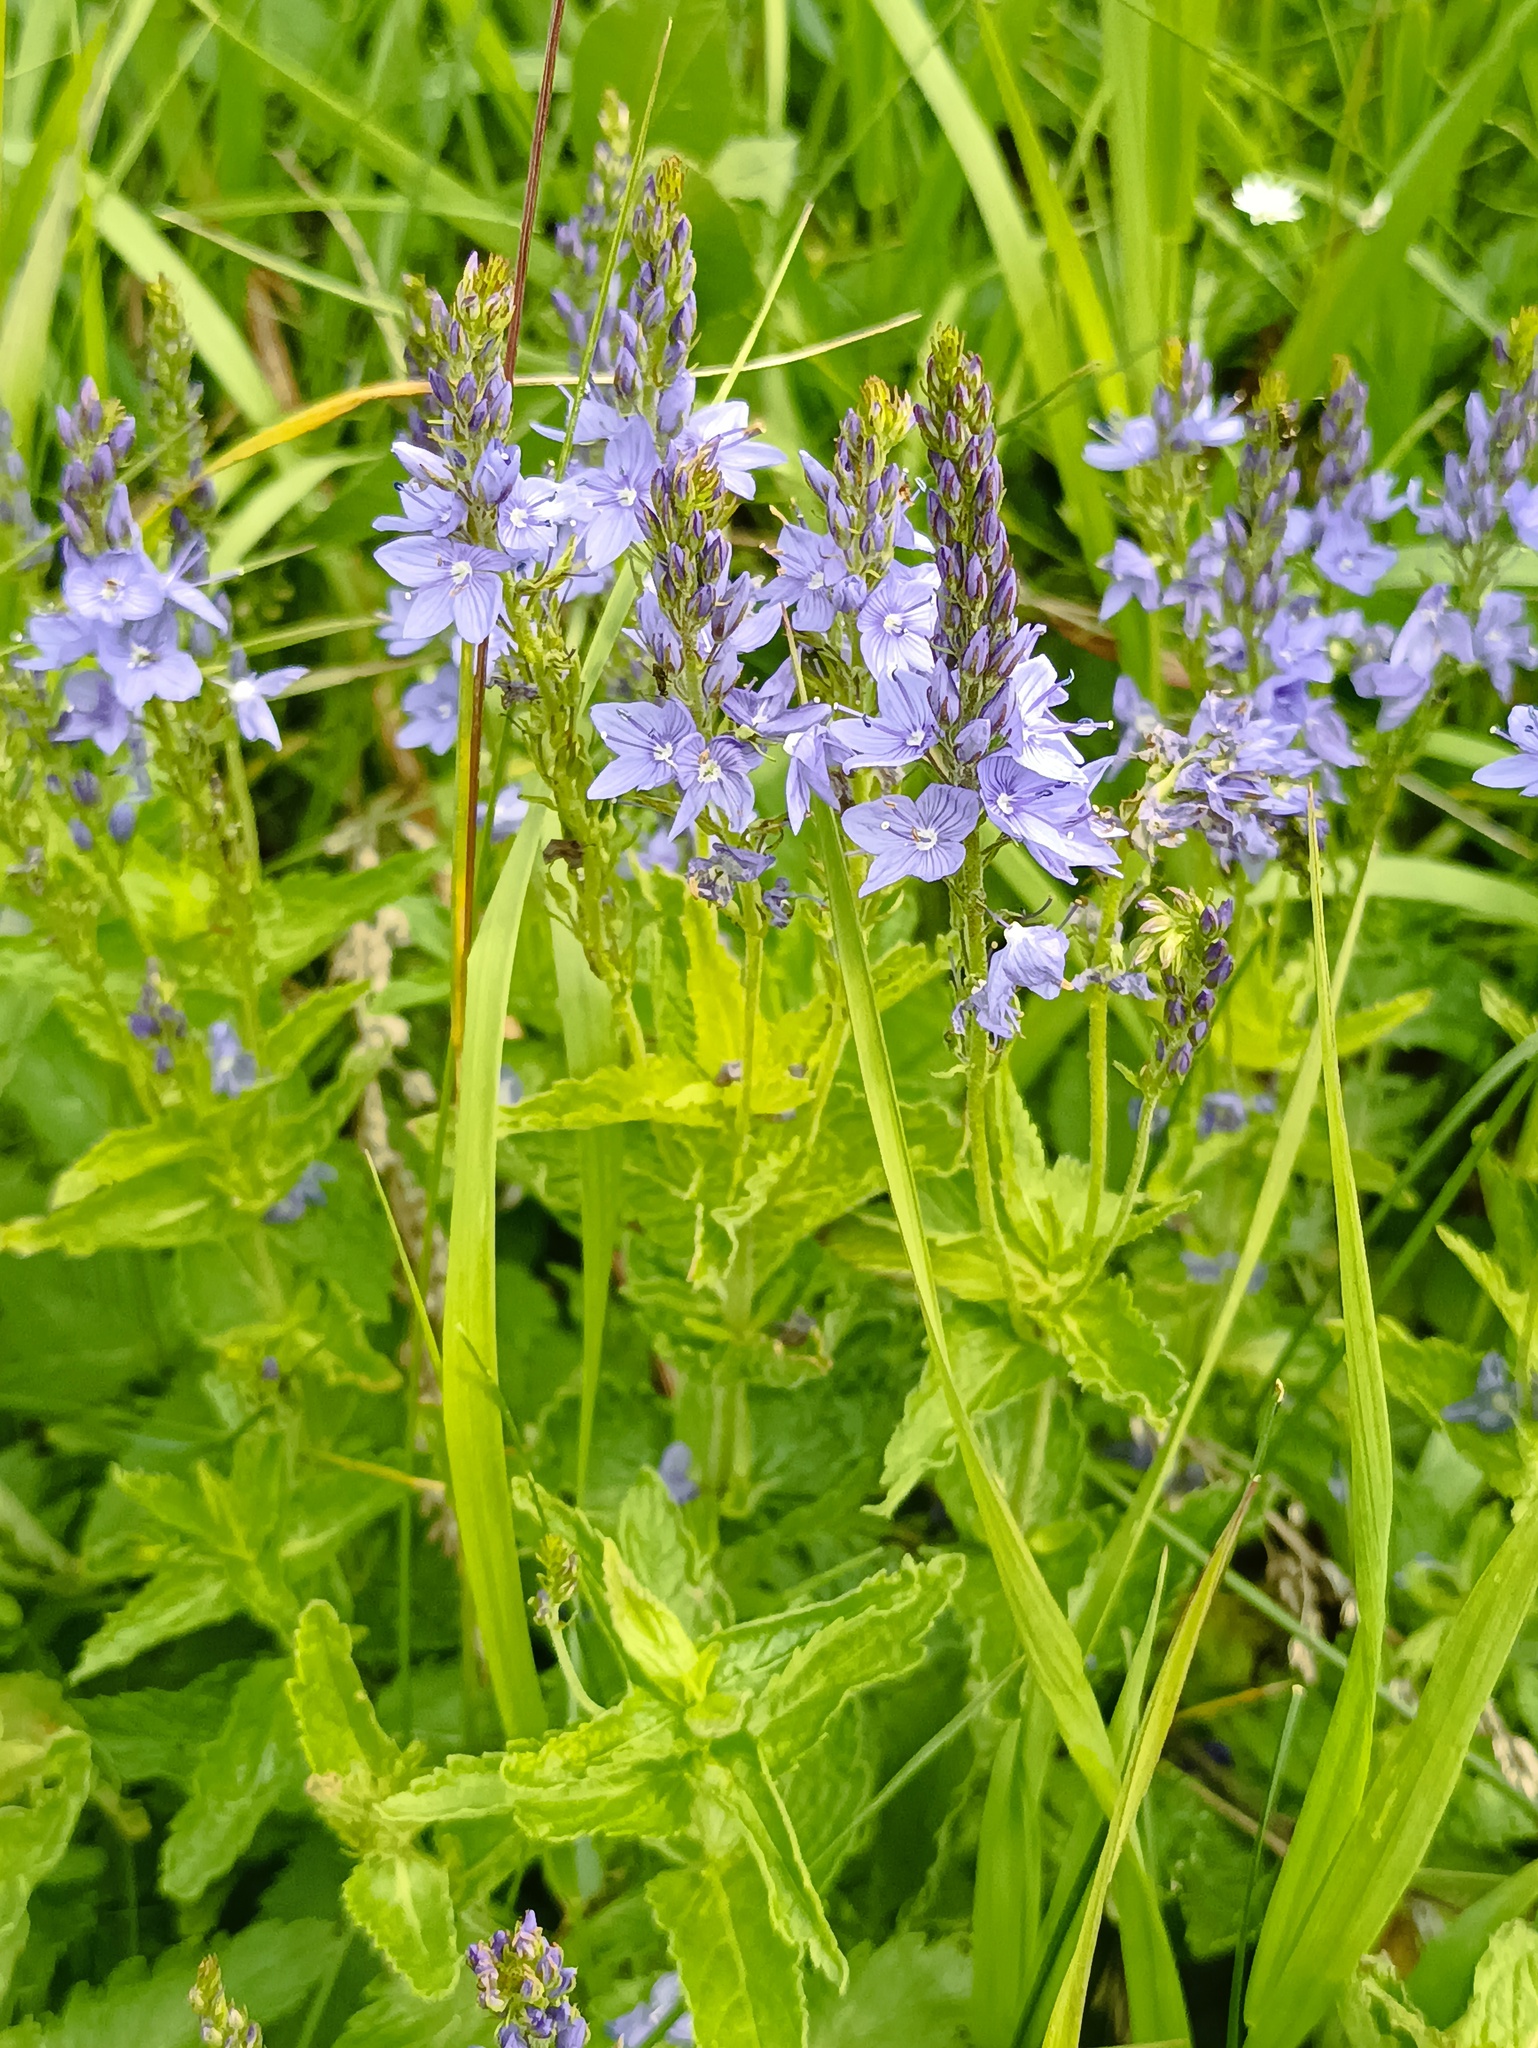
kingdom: Plantae
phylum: Tracheophyta
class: Magnoliopsida
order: Lamiales
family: Plantaginaceae
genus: Veronica
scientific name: Veronica teucrium
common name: Large speedwell
